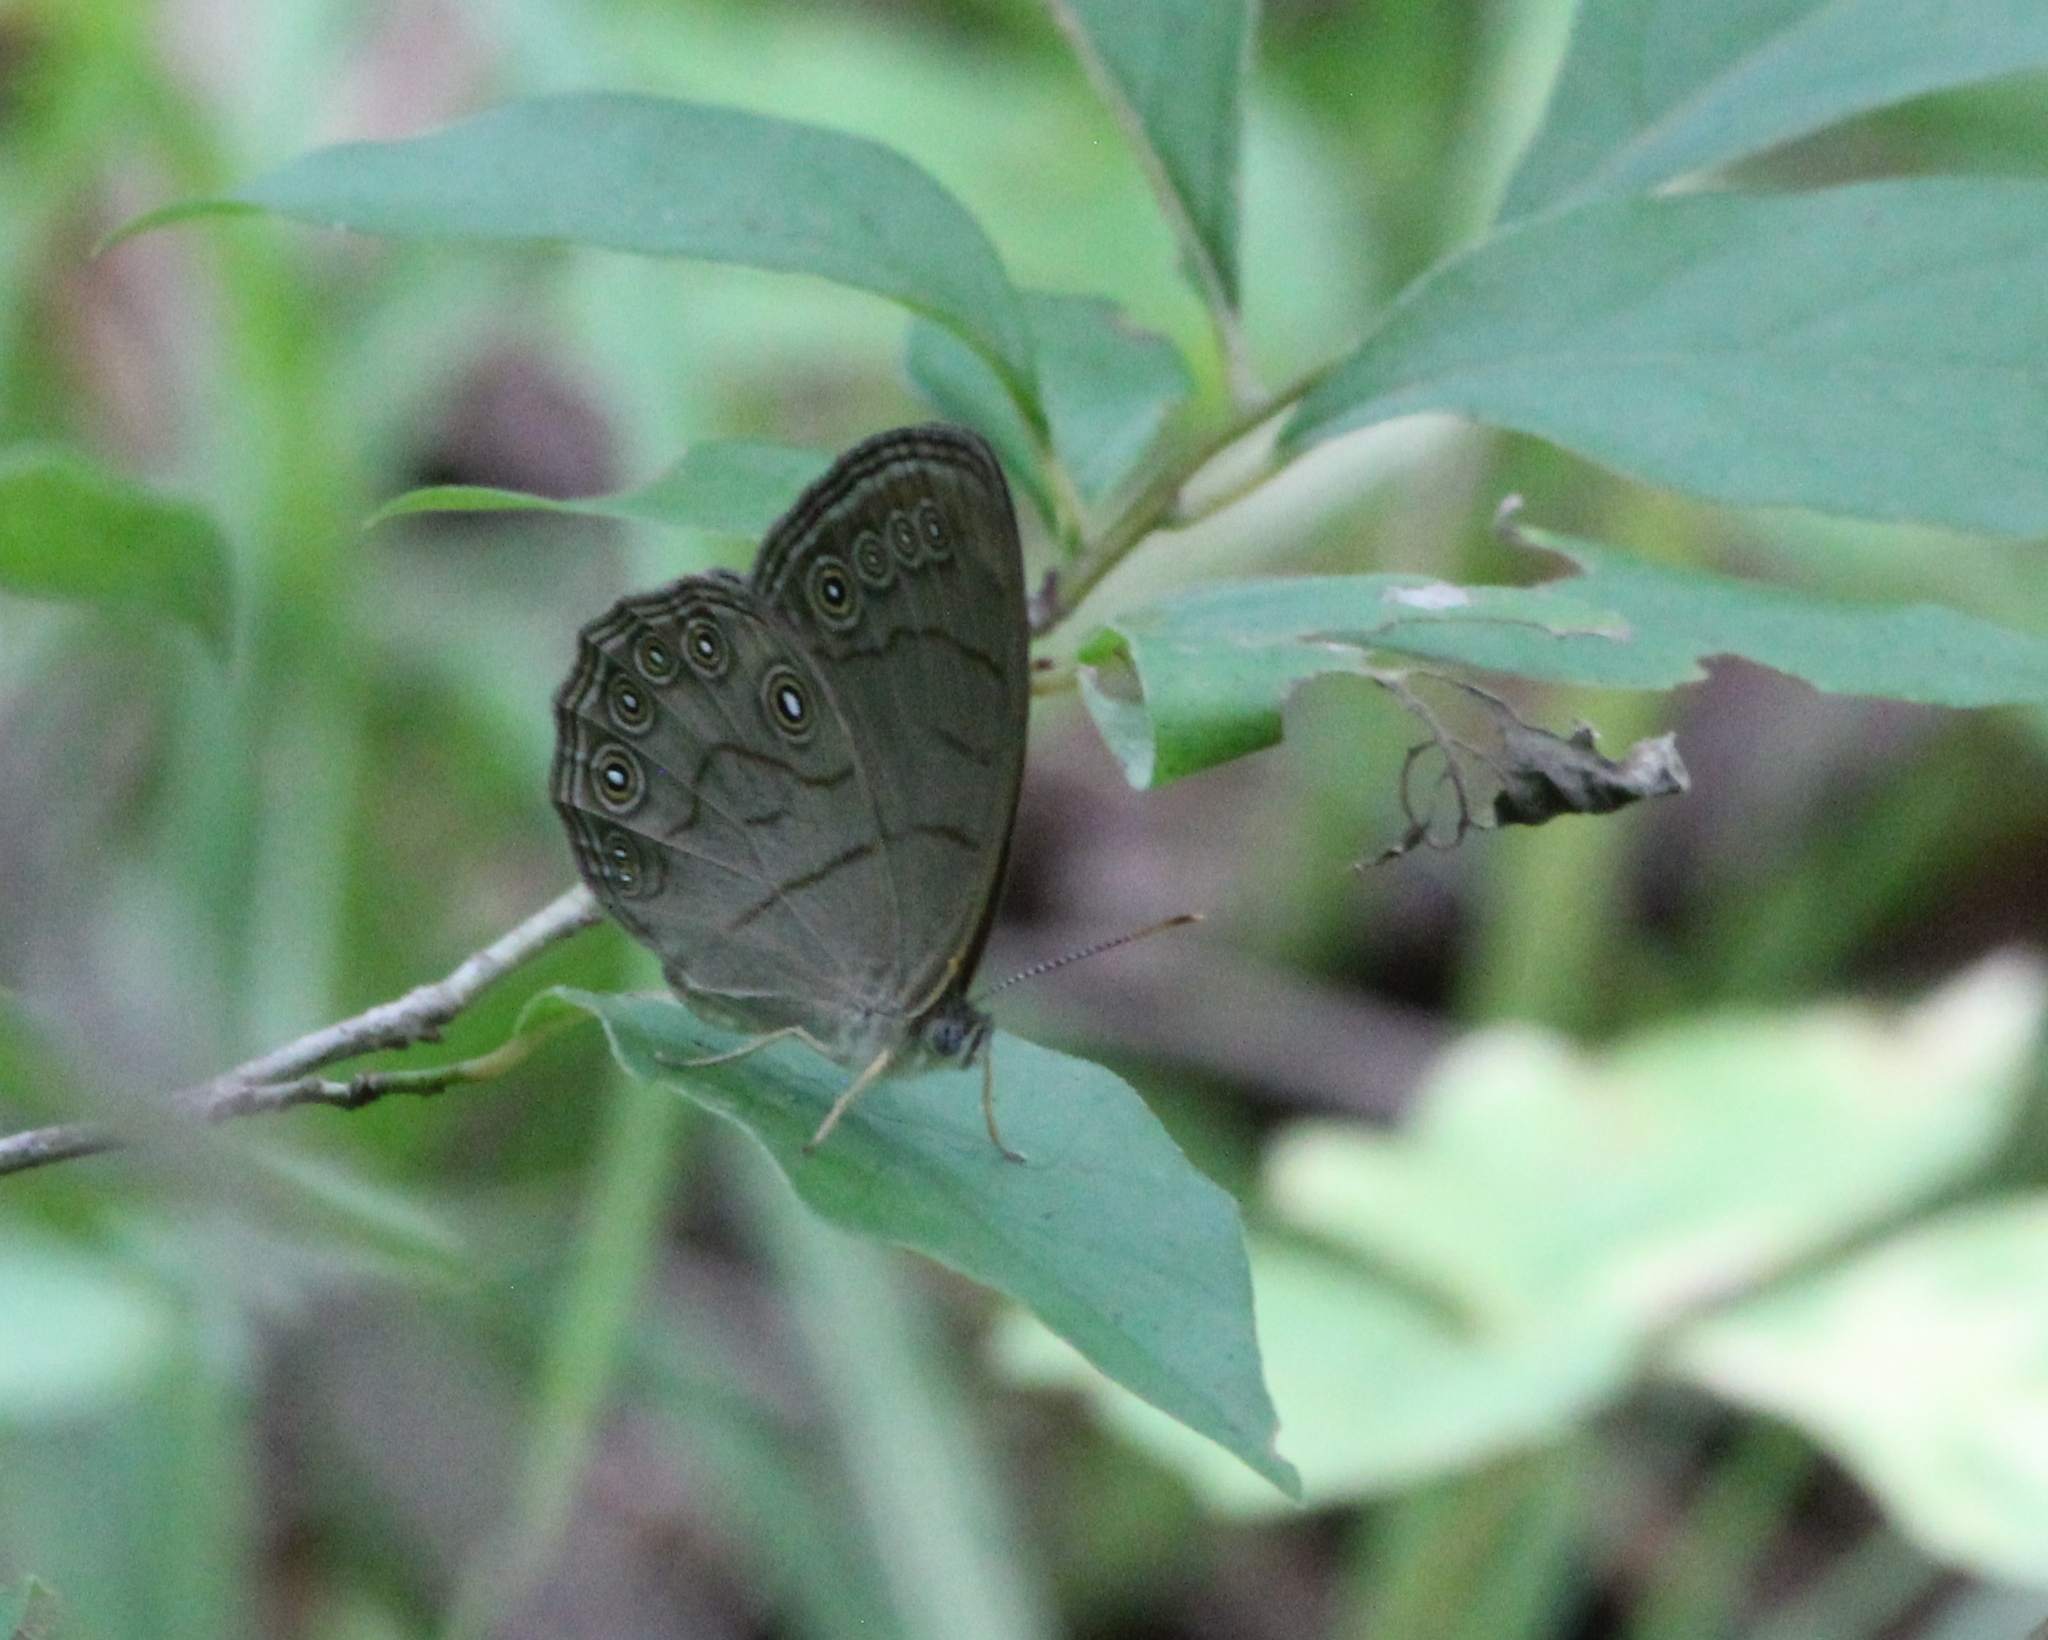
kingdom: Animalia
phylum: Arthropoda
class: Insecta
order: Lepidoptera
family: Nymphalidae
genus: Lethe
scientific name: Lethe eurydice
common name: Eyed brown
